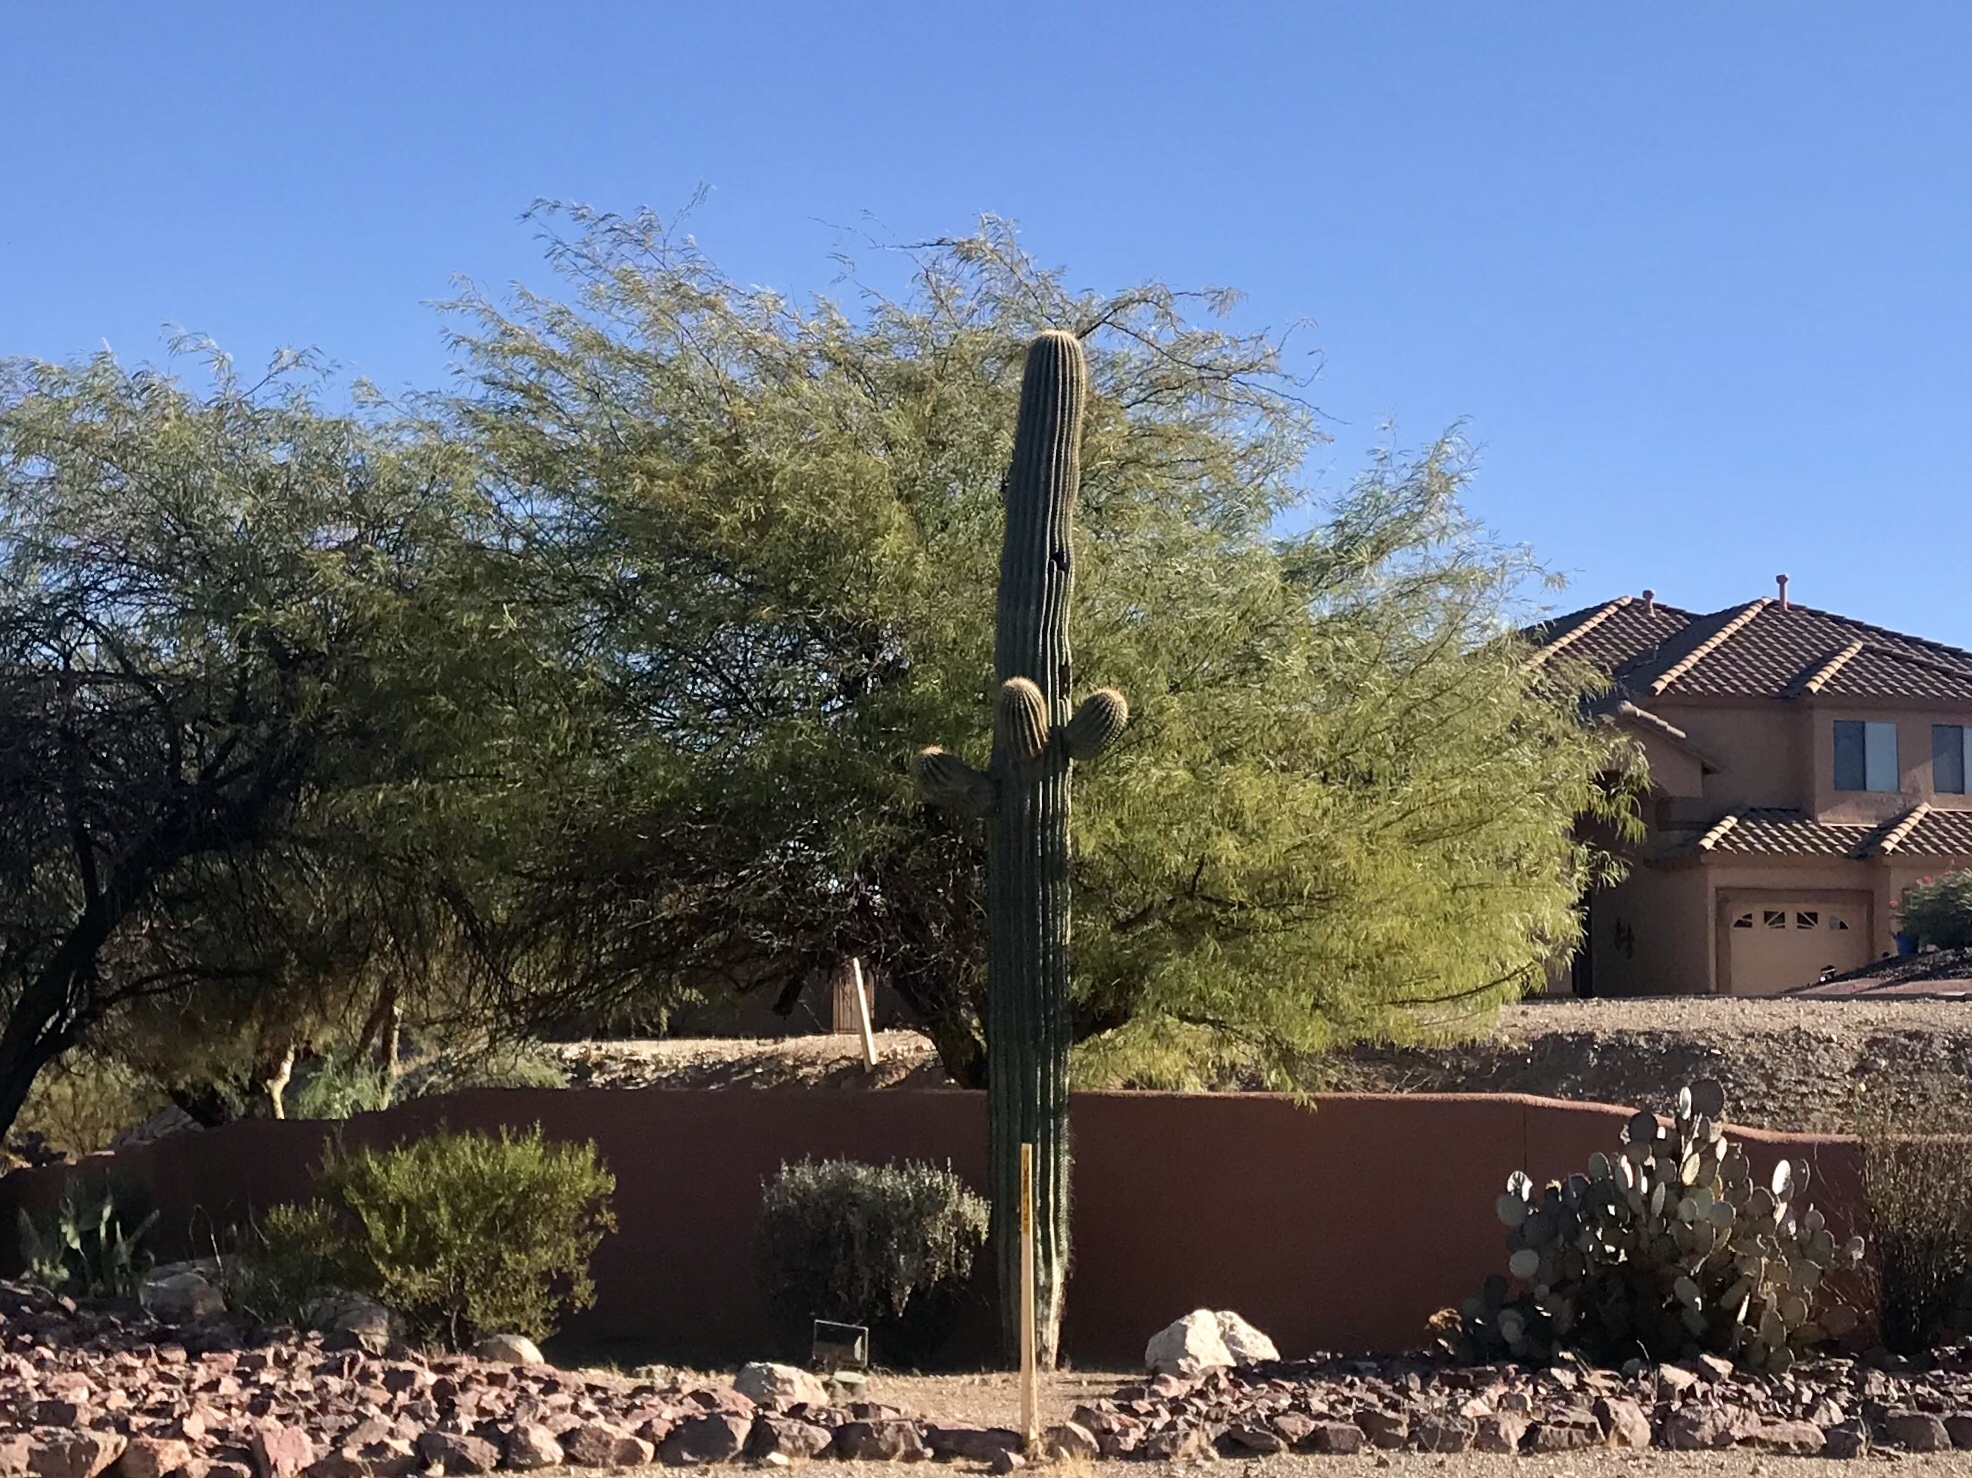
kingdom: Plantae
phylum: Tracheophyta
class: Magnoliopsida
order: Caryophyllales
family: Cactaceae
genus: Carnegiea
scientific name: Carnegiea gigantea
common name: Saguaro
